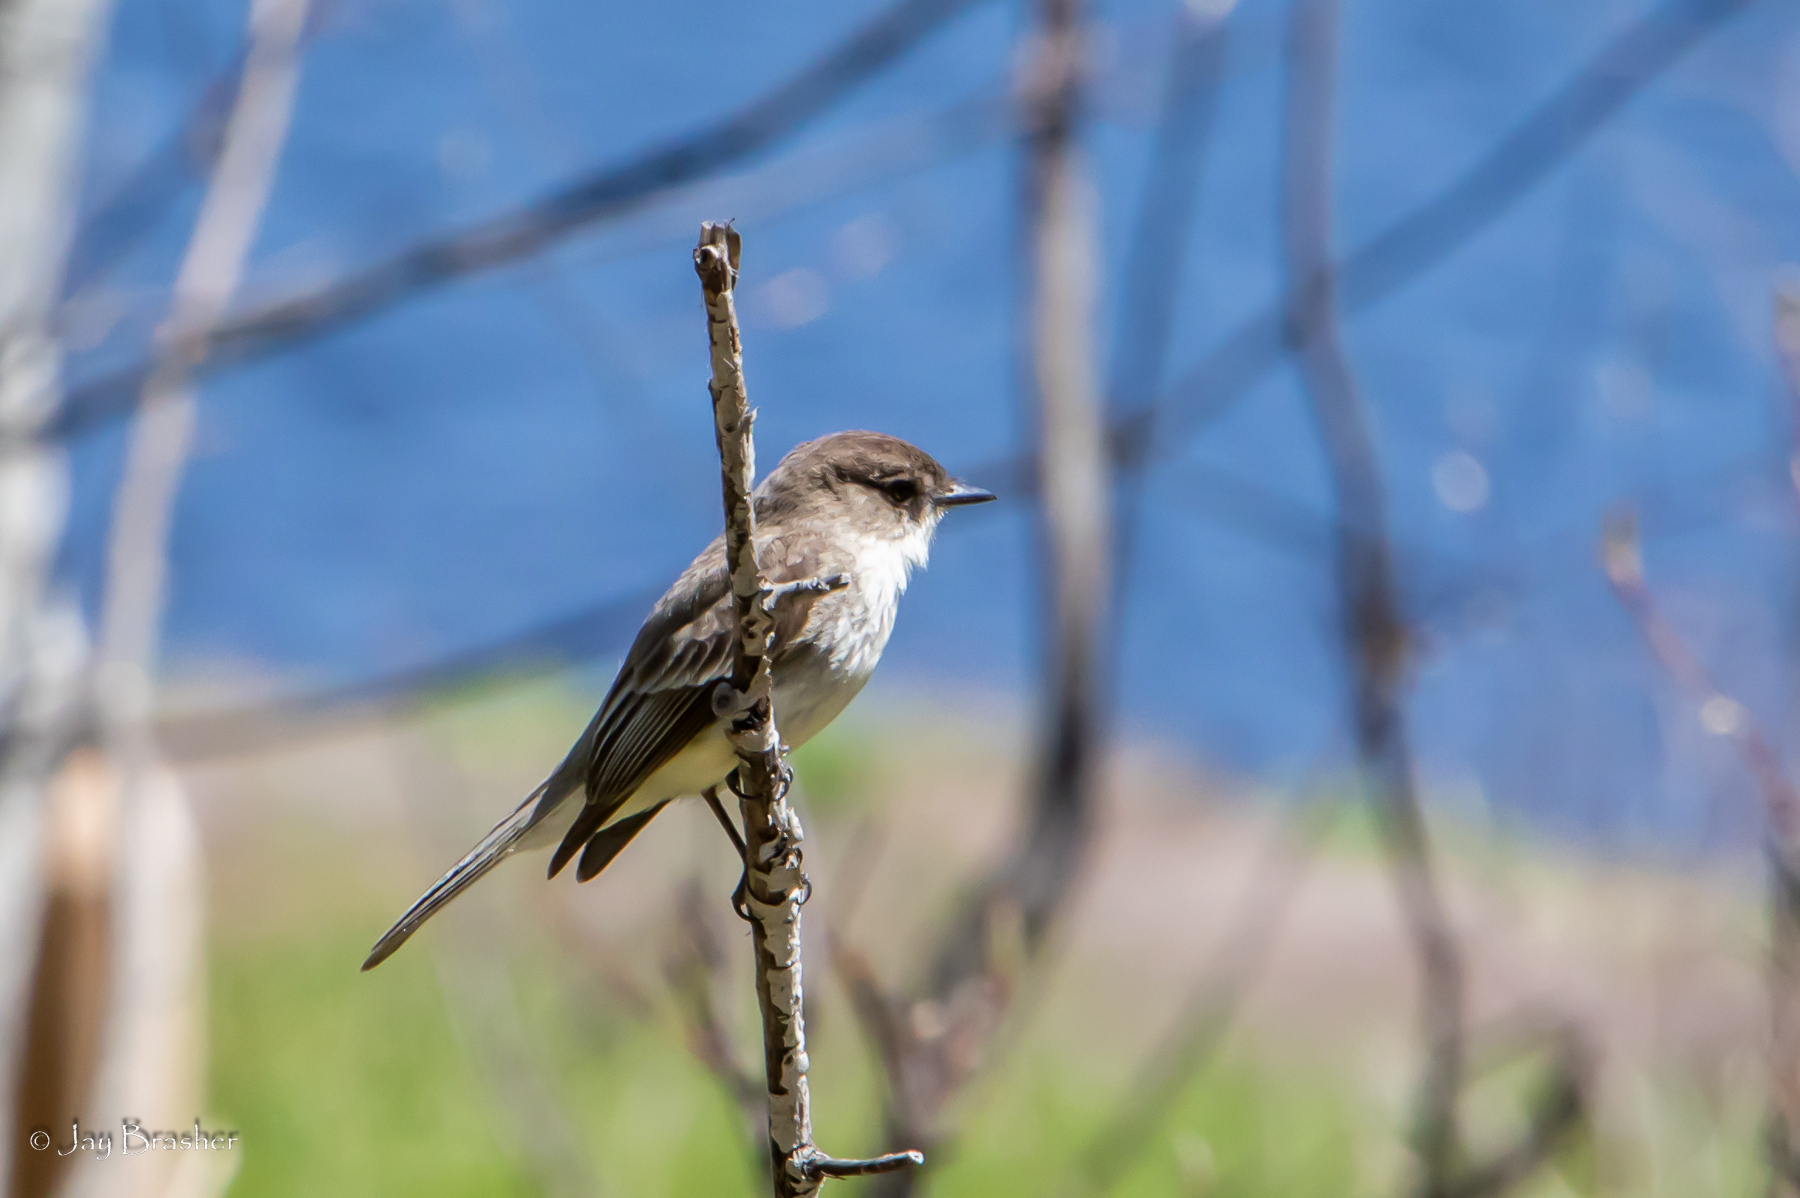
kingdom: Animalia
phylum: Chordata
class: Aves
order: Passeriformes
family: Tyrannidae
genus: Sayornis
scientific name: Sayornis phoebe
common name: Eastern phoebe
